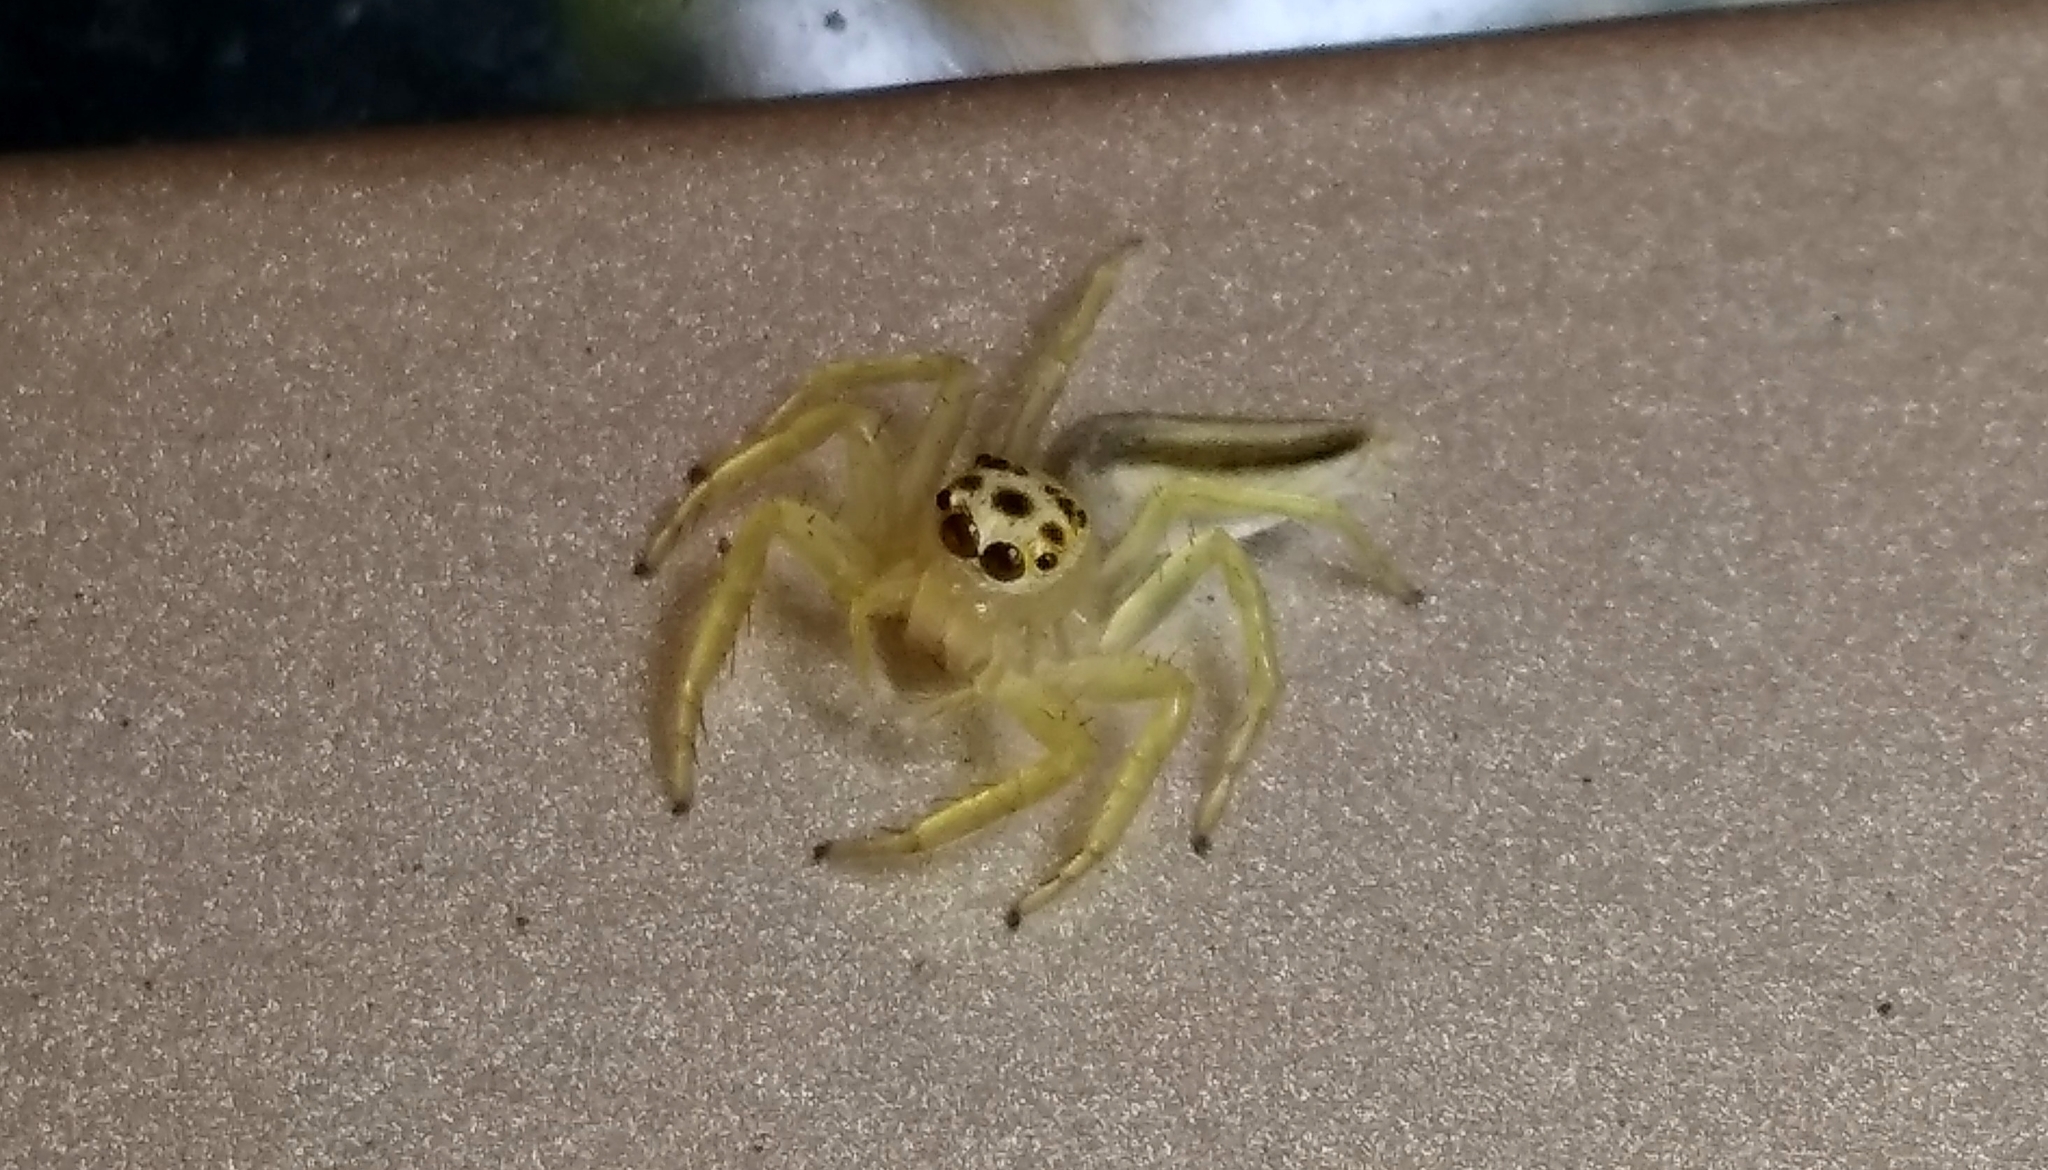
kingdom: Animalia
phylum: Arthropoda
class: Arachnida
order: Araneae
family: Salticidae
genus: Telamonia
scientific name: Telamonia dimidiata
